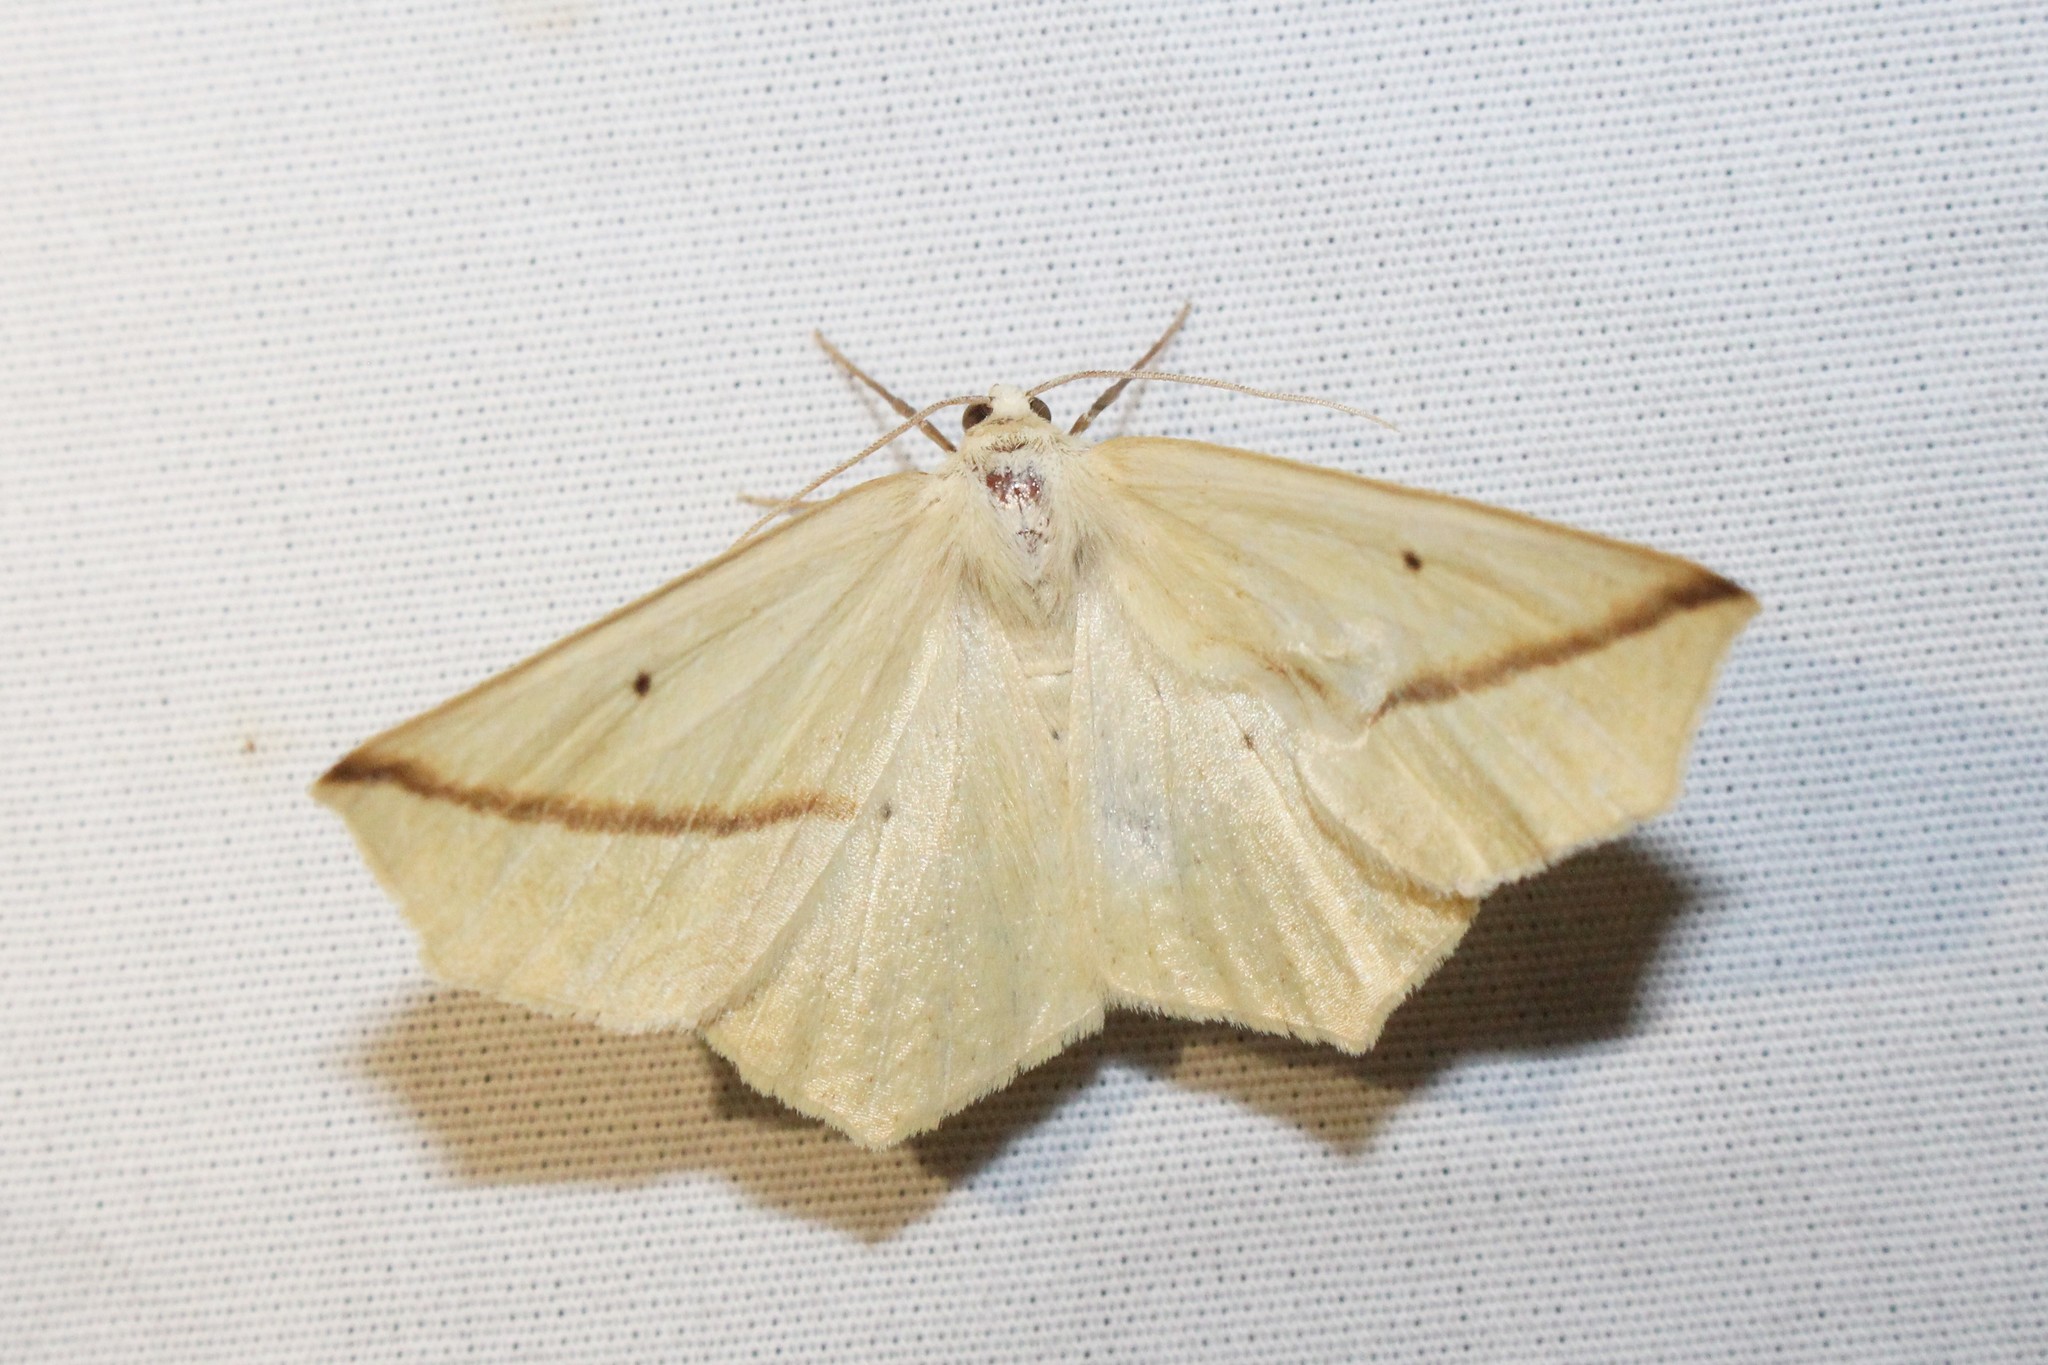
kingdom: Animalia
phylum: Arthropoda
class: Insecta
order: Lepidoptera
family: Geometridae
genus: Tetracis
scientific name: Tetracis crocallata
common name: Yellow slant-line
